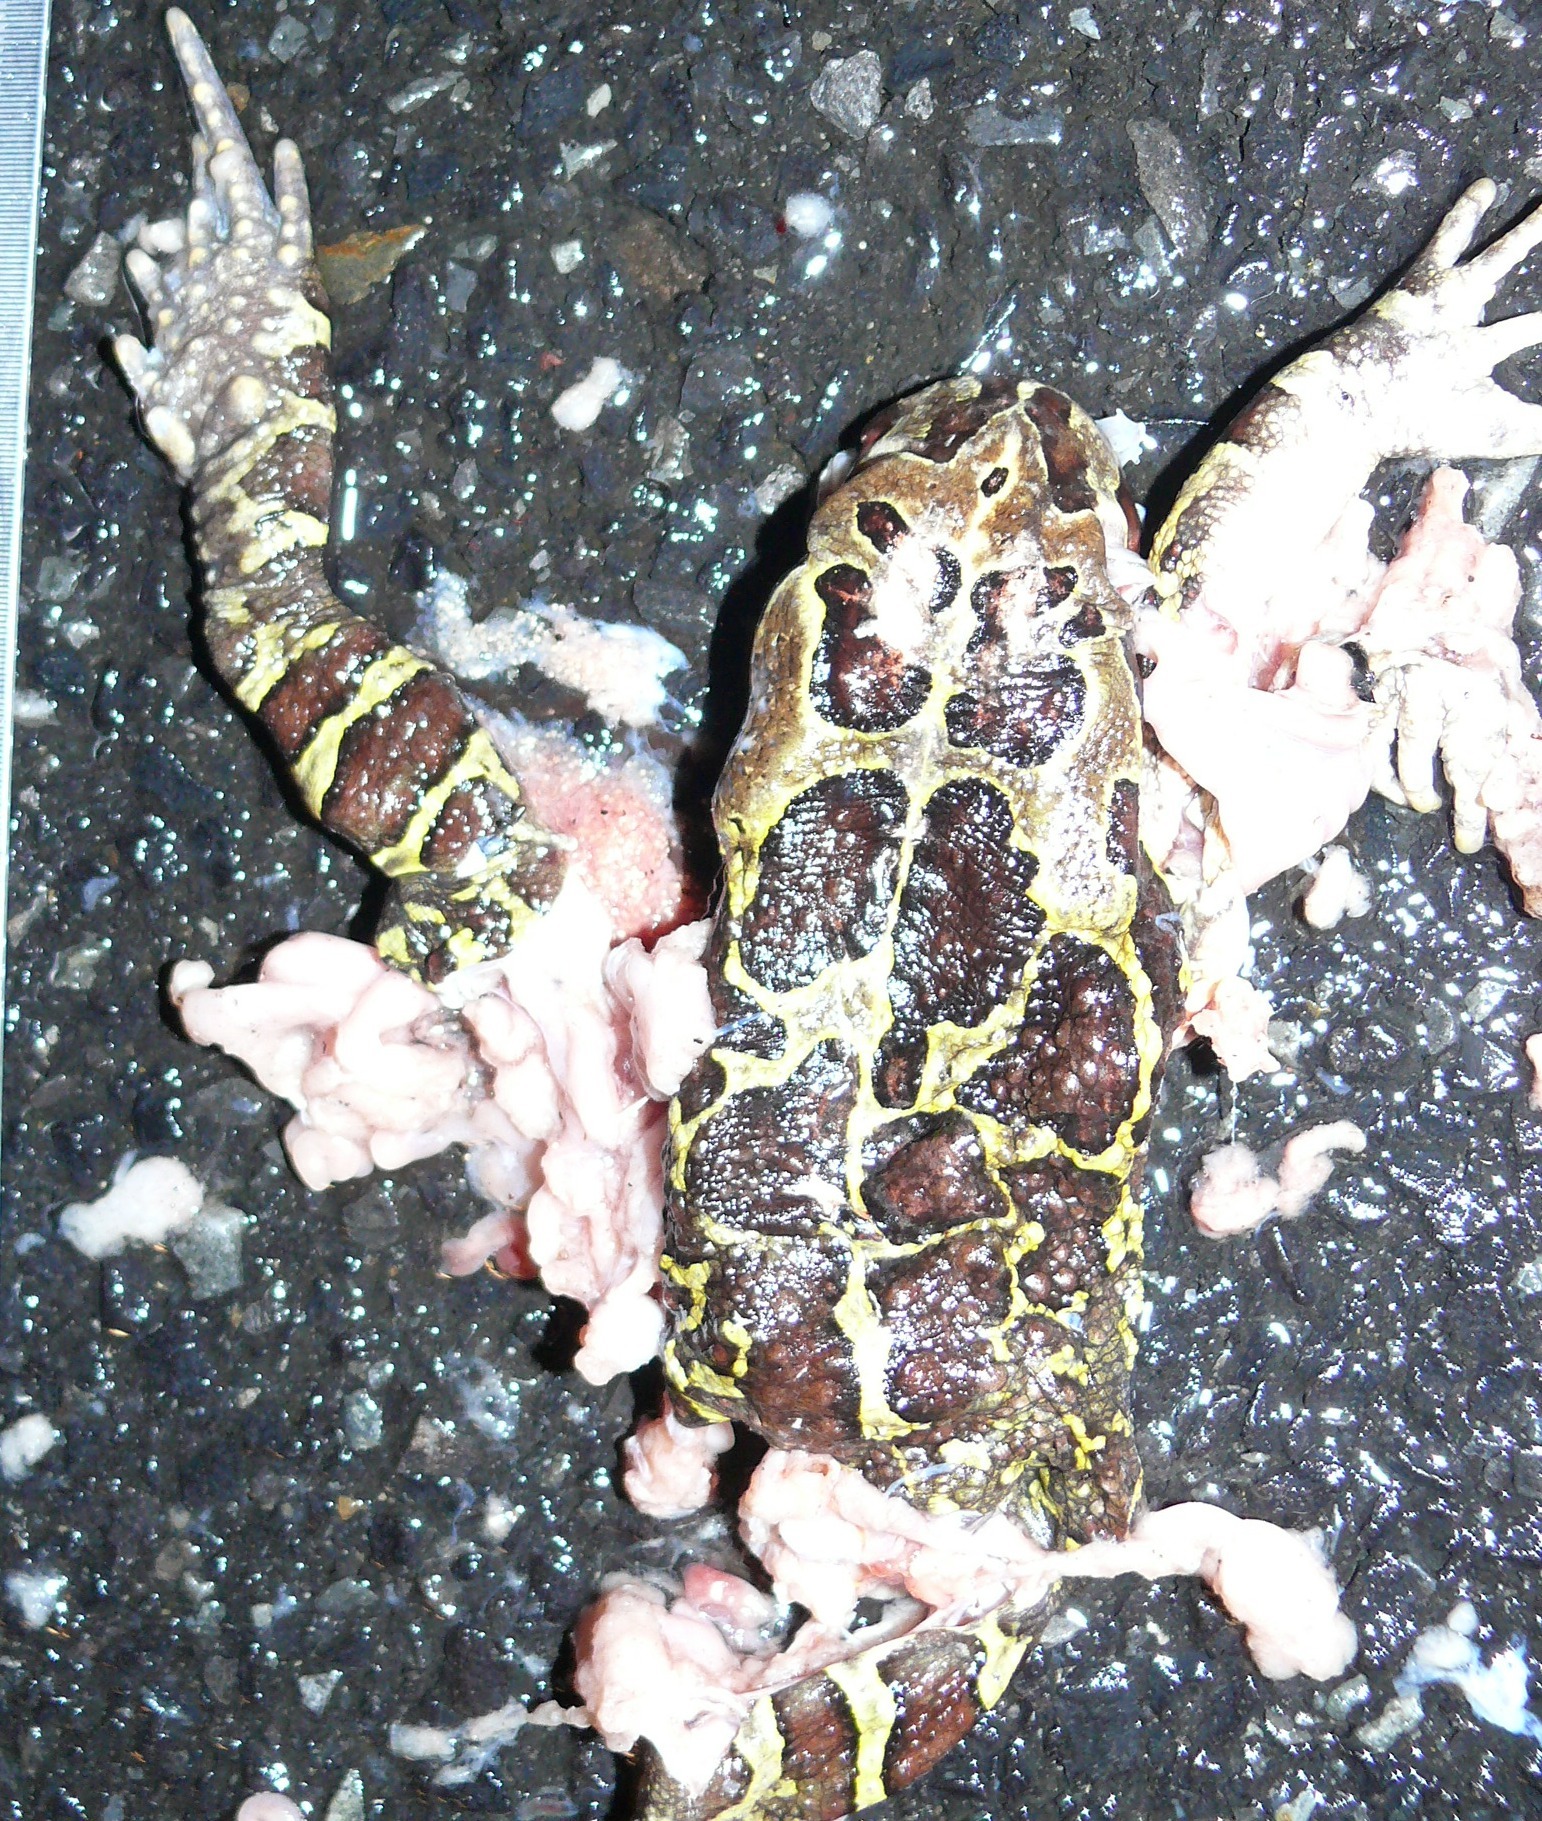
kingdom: Animalia
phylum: Chordata
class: Amphibia
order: Anura
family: Bufonidae
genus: Sclerophrys
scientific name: Sclerophrys pantherina
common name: Panther toad
